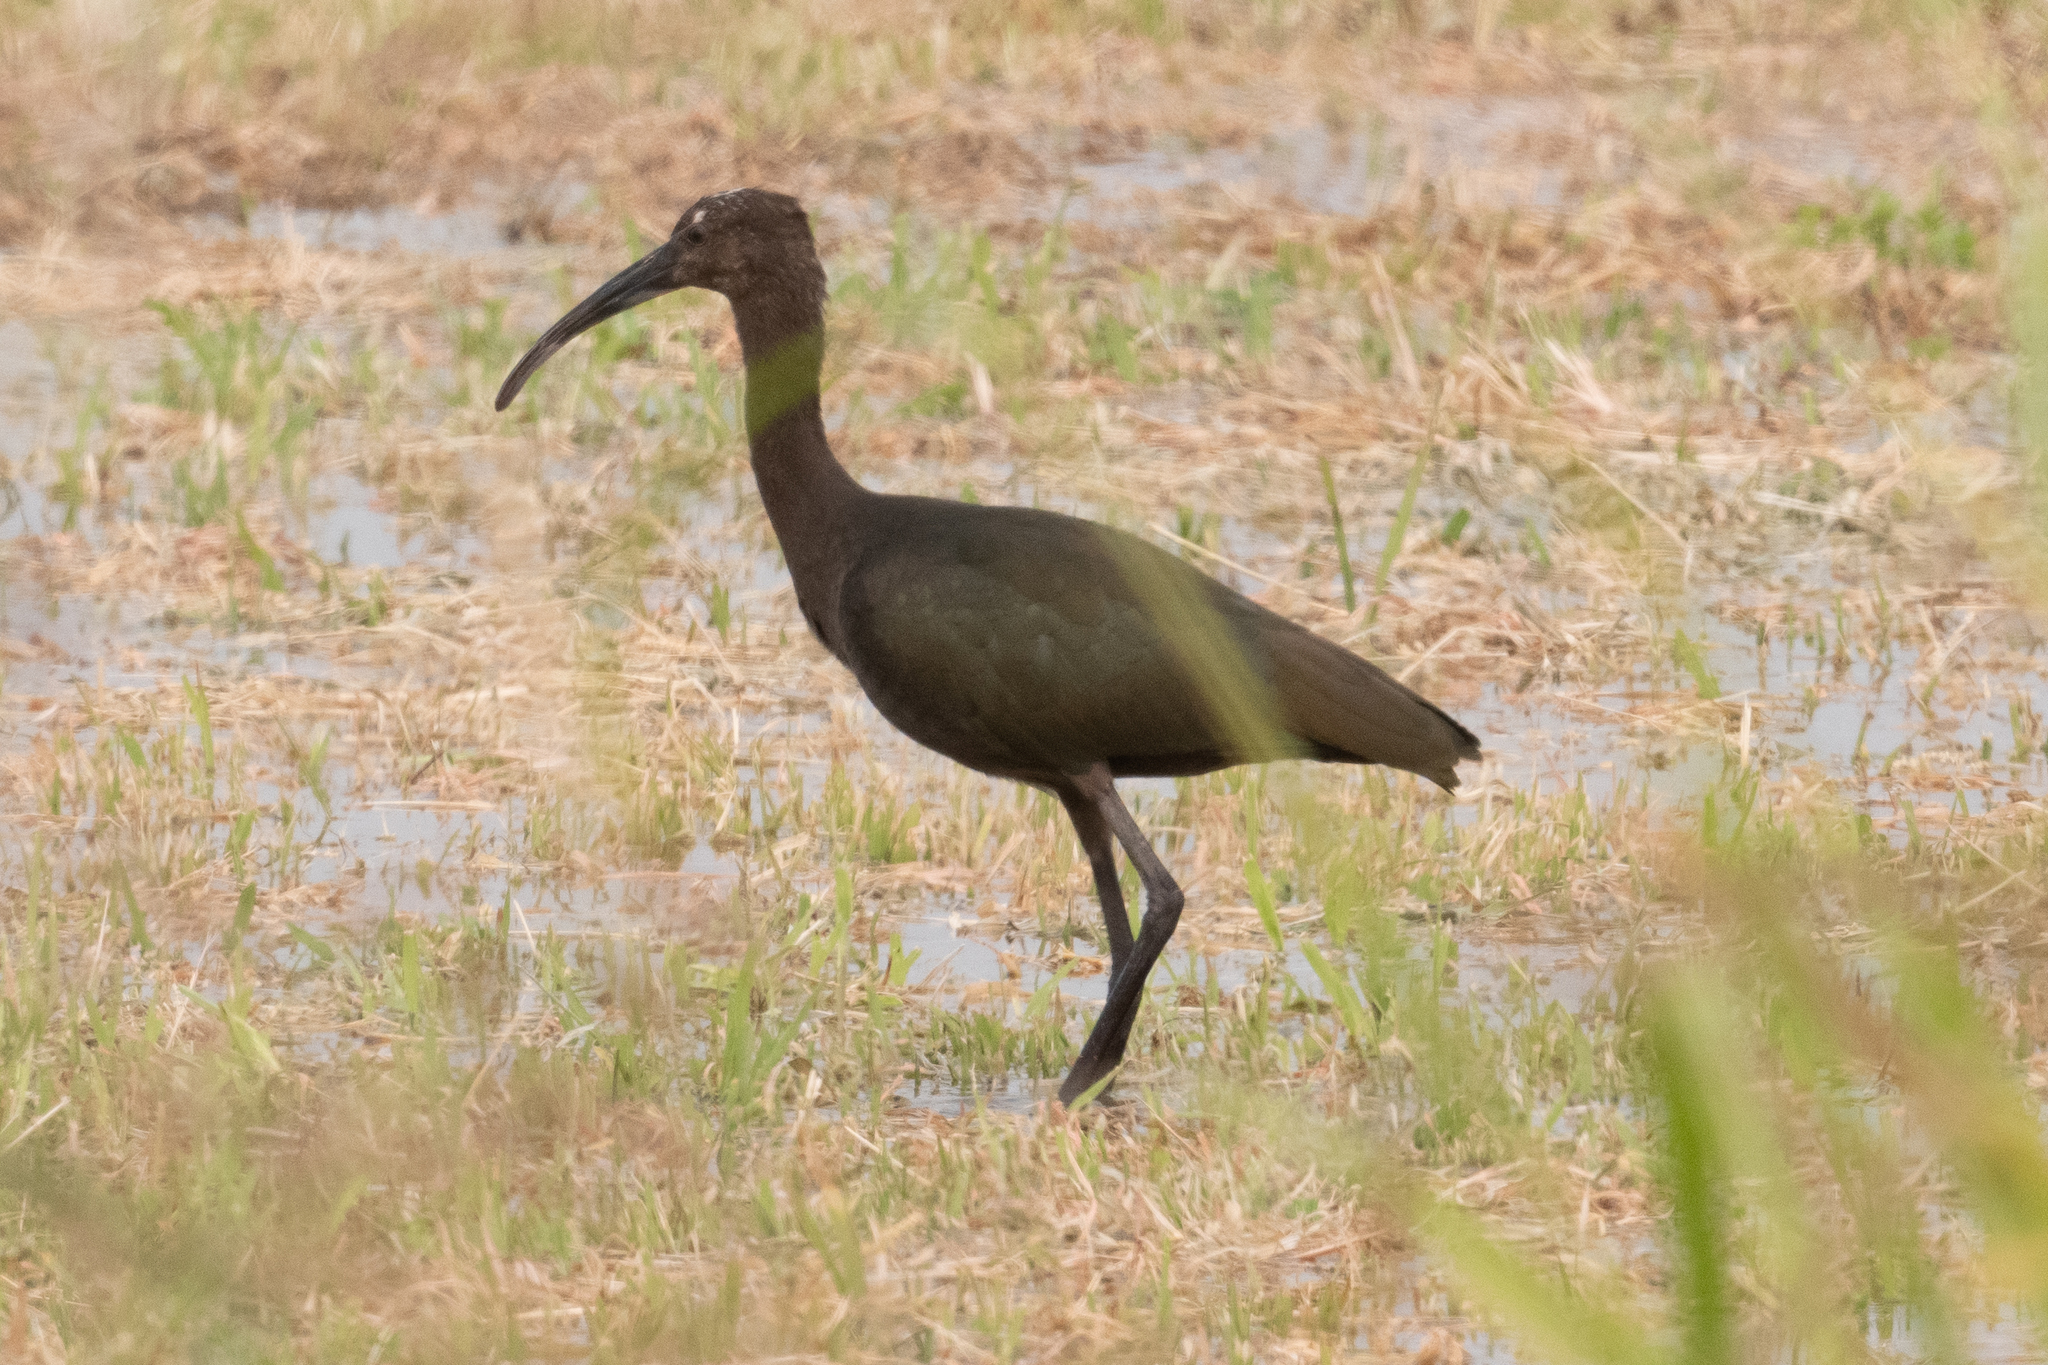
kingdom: Animalia
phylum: Chordata
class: Aves
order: Pelecaniformes
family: Threskiornithidae
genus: Plegadis
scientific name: Plegadis chihi
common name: White-faced ibis
